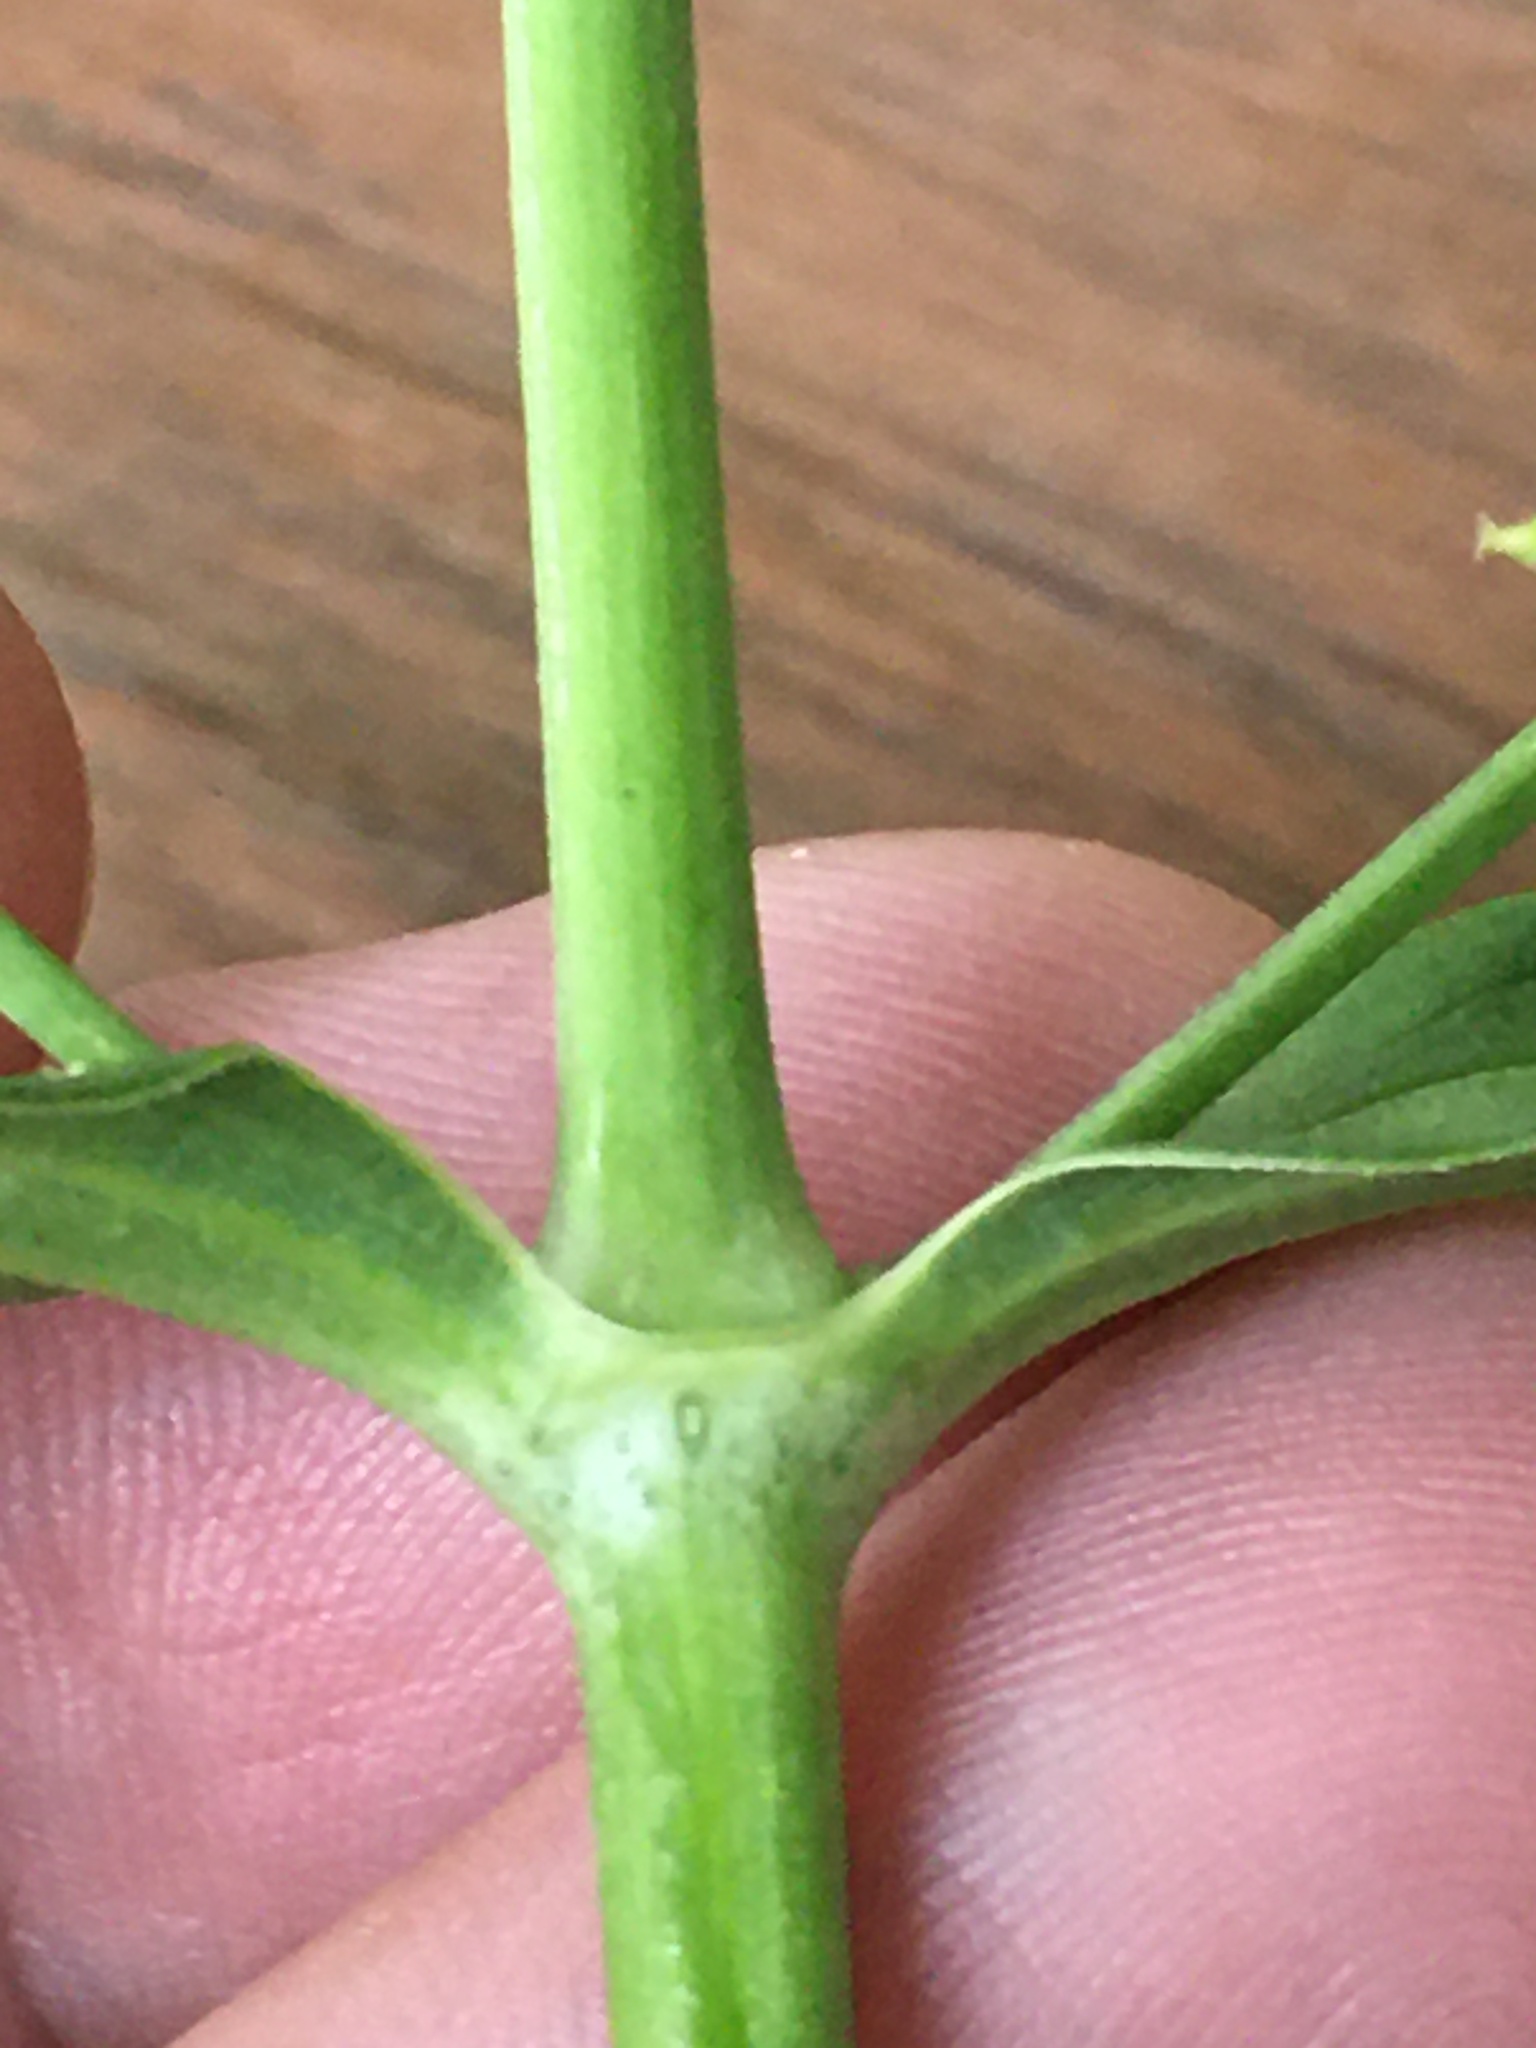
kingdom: Plantae
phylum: Tracheophyta
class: Magnoliopsida
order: Caryophyllales
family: Caryophyllaceae
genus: Saponaria
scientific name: Saponaria officinalis
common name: Soapwort
